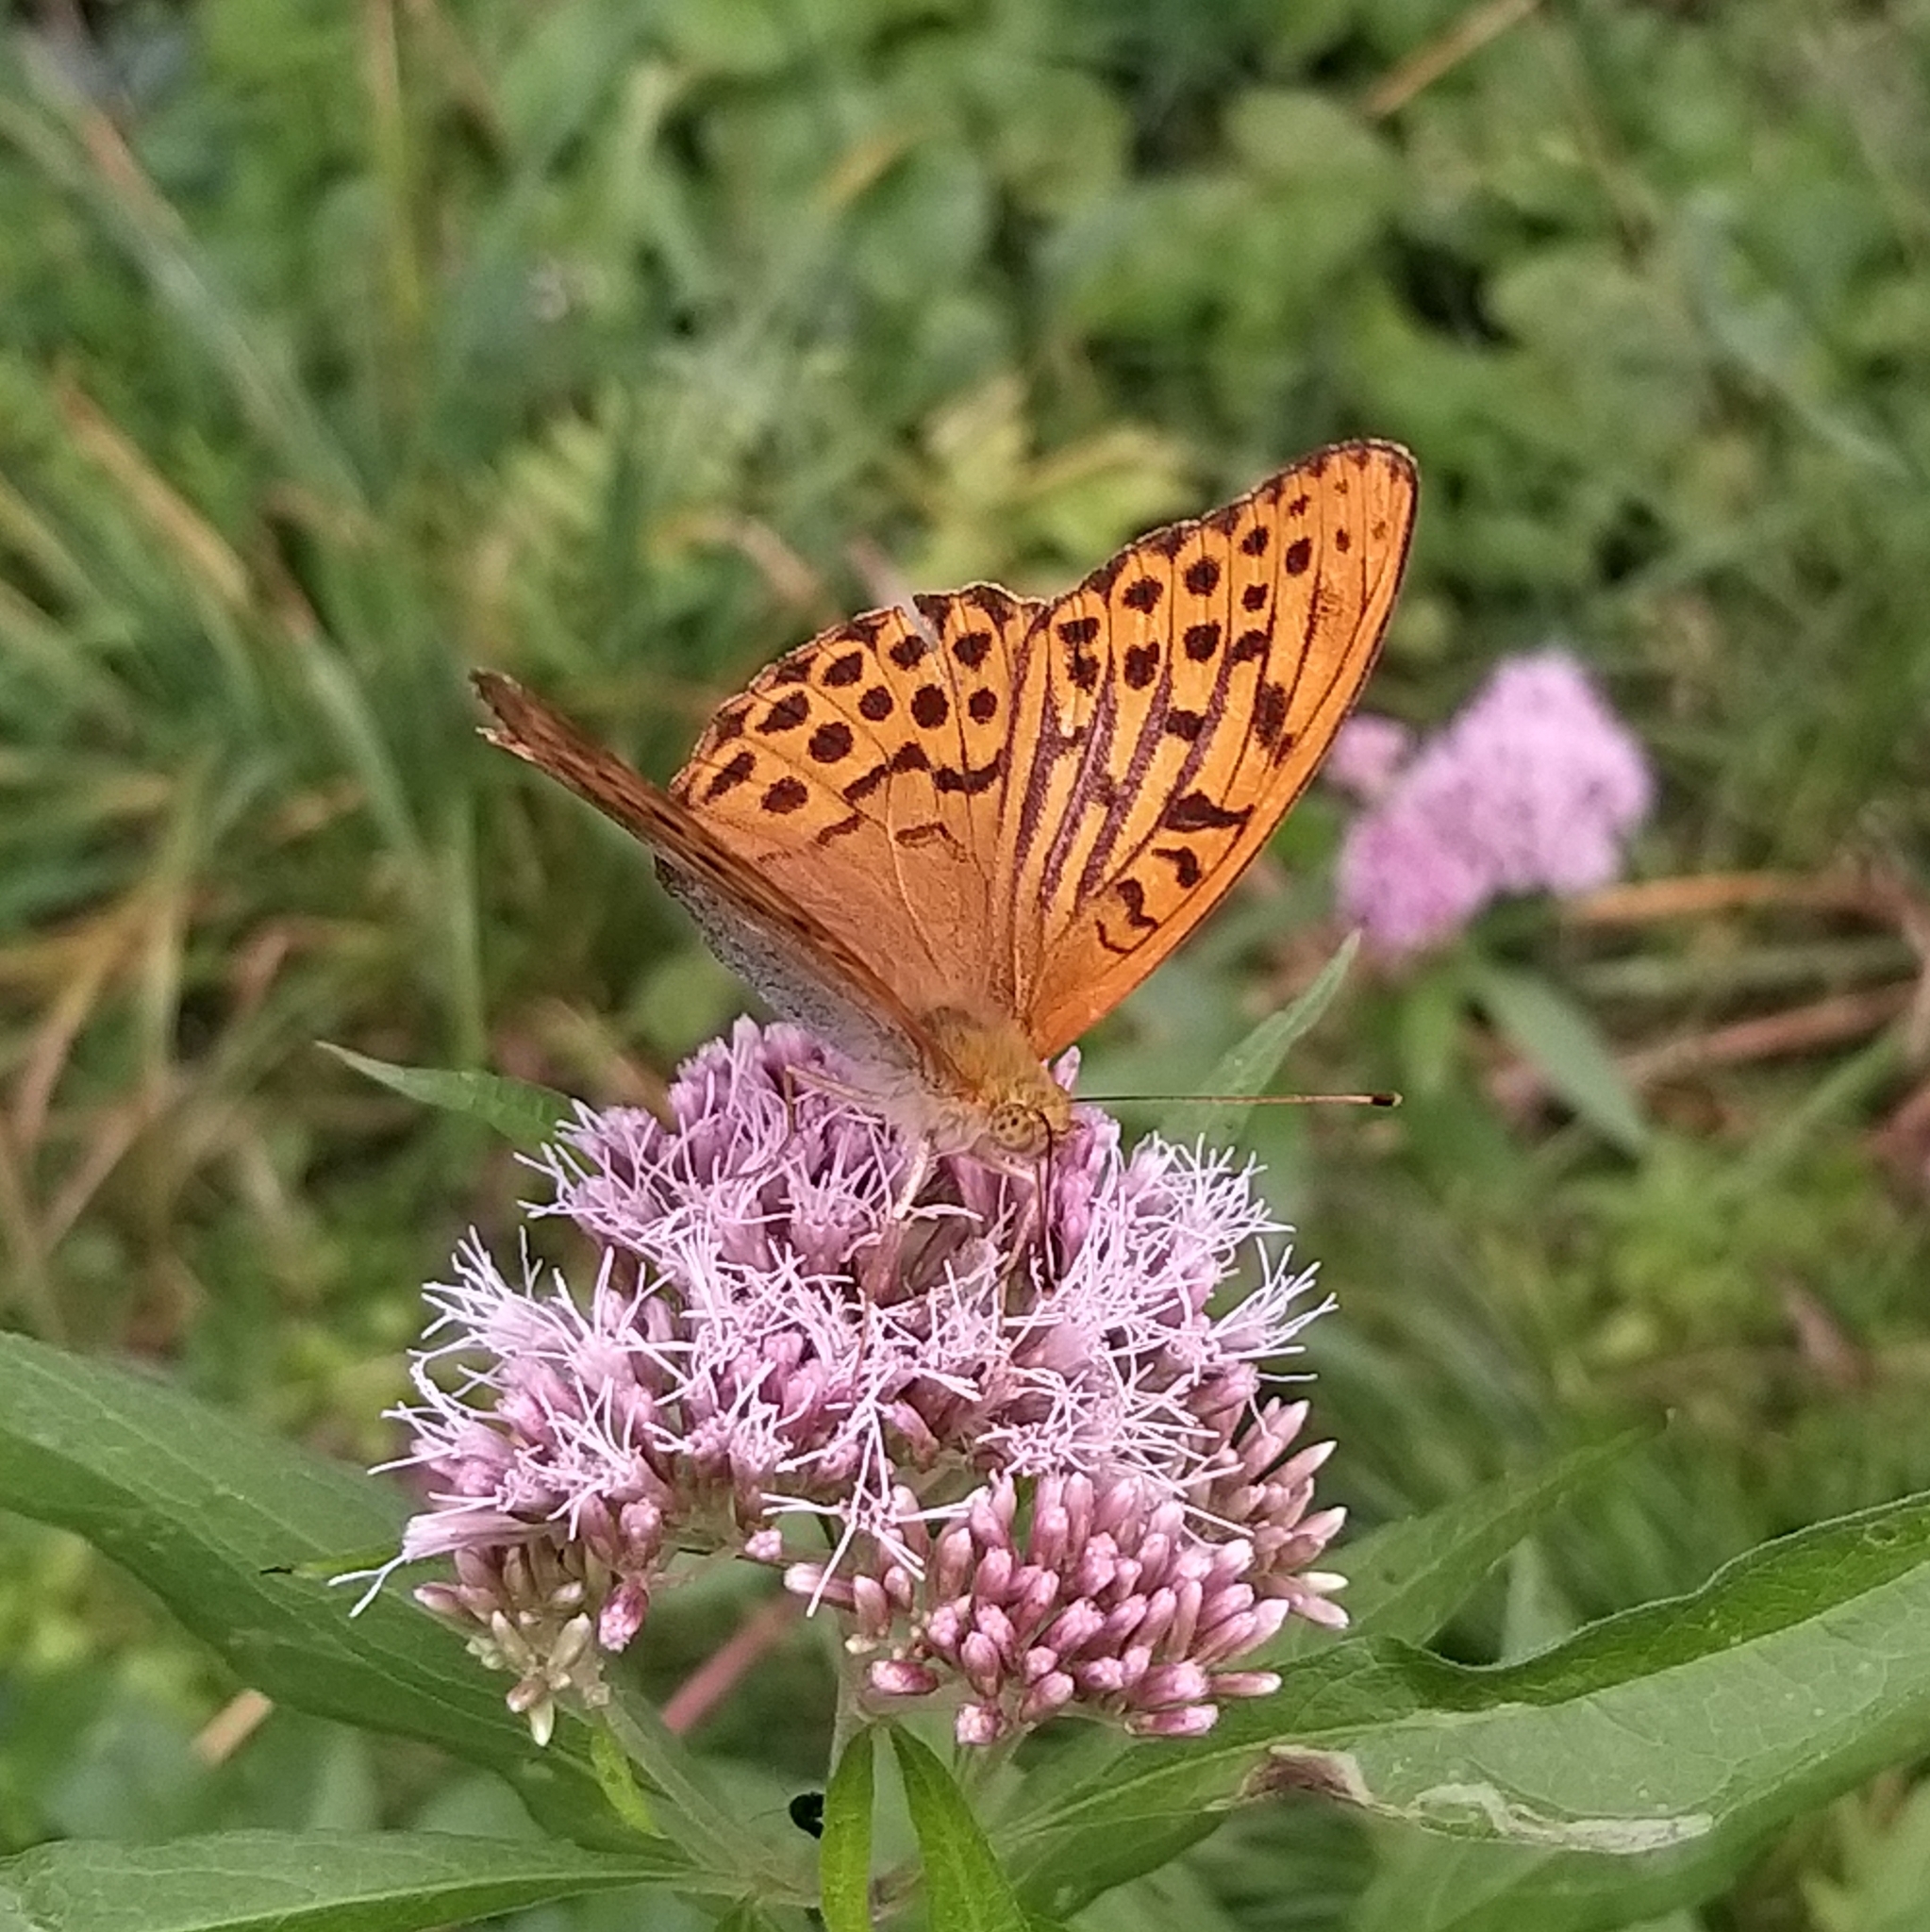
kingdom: Animalia
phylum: Arthropoda
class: Insecta
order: Lepidoptera
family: Nymphalidae
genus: Argynnis
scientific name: Argynnis paphia
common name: Silver-washed fritillary
